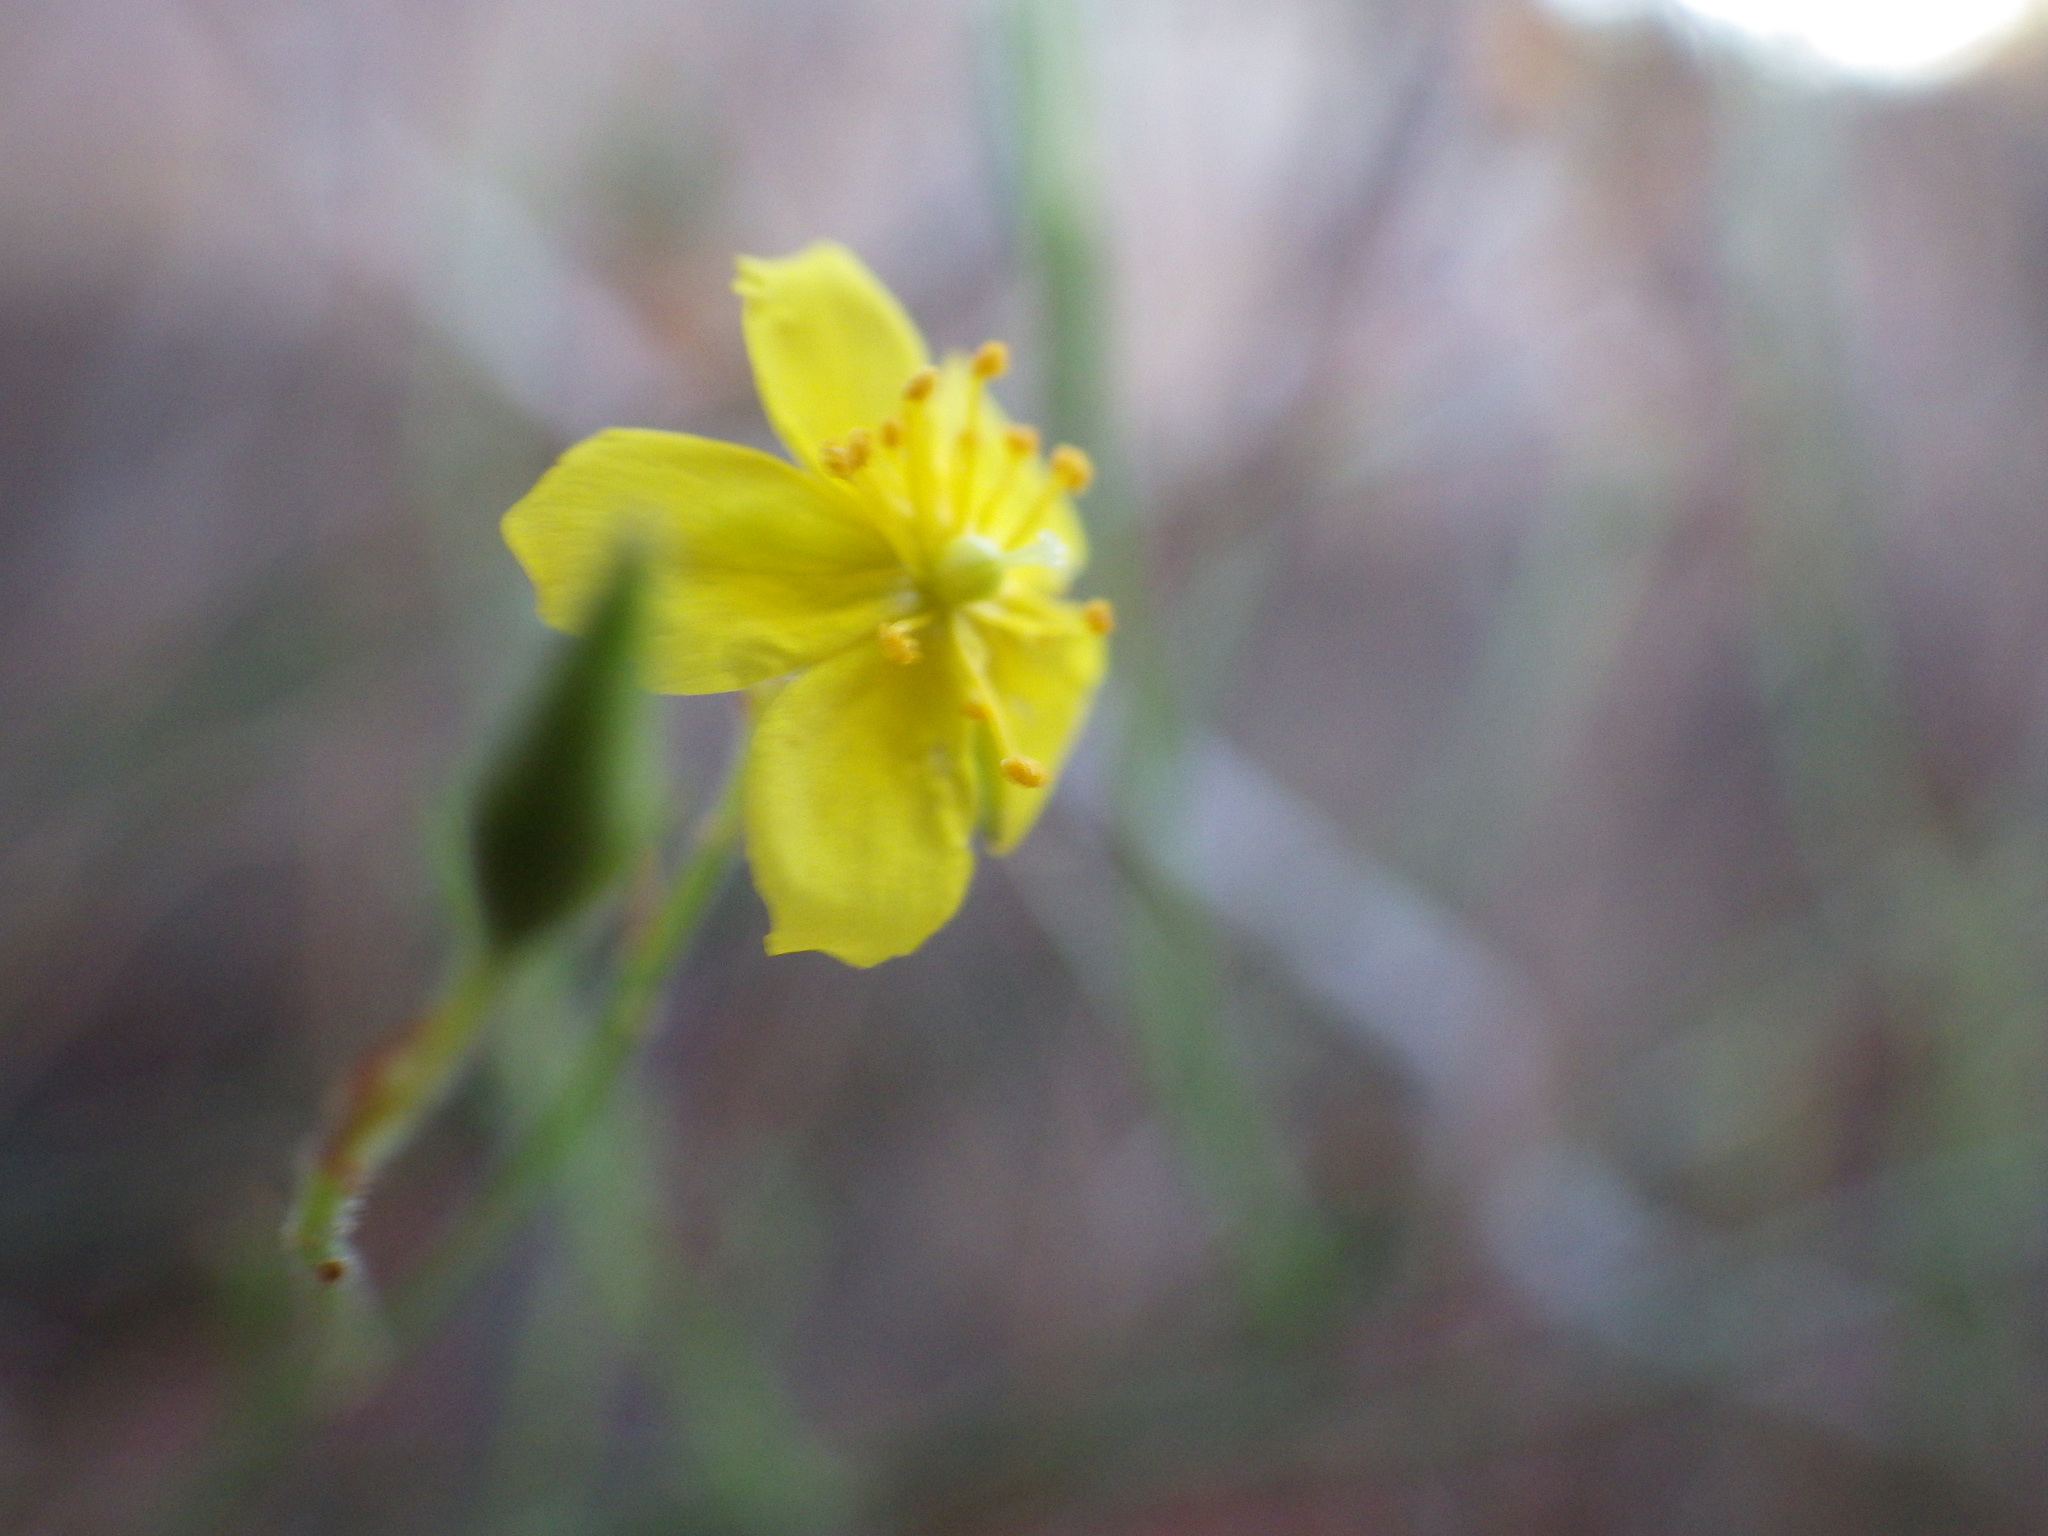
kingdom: Plantae
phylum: Tracheophyta
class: Magnoliopsida
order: Malvales
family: Cistaceae
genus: Crocanthemum
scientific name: Crocanthemum scoparium
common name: Broom-rose
